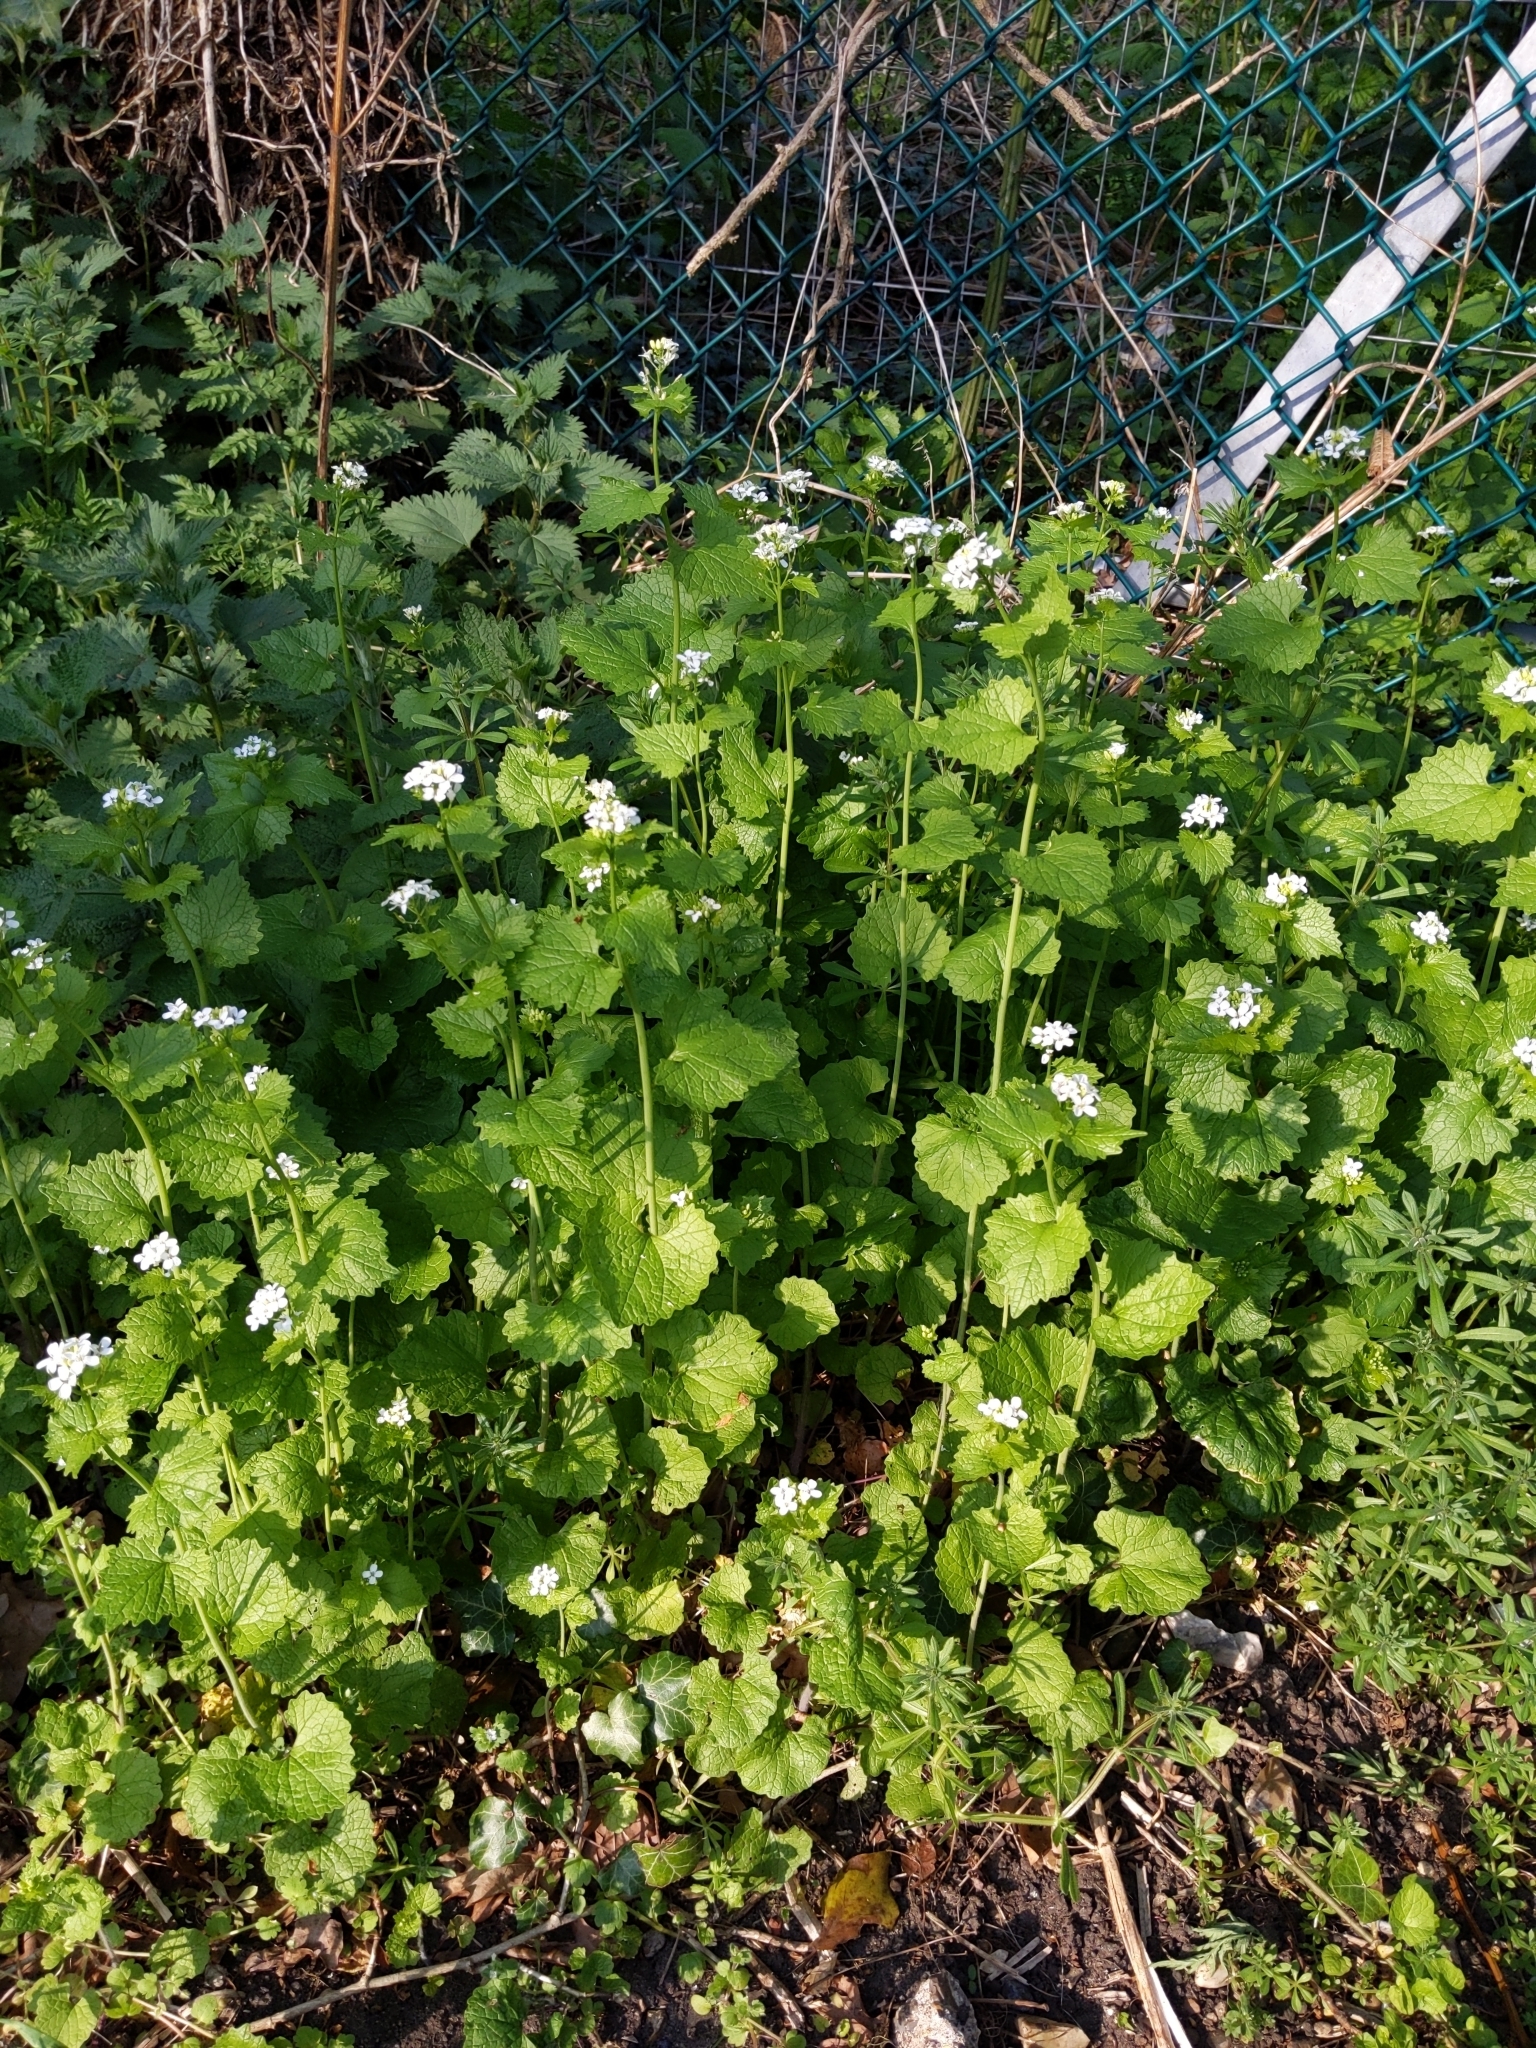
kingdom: Plantae
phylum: Tracheophyta
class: Magnoliopsida
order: Brassicales
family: Brassicaceae
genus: Alliaria
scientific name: Alliaria petiolata
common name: Garlic mustard
